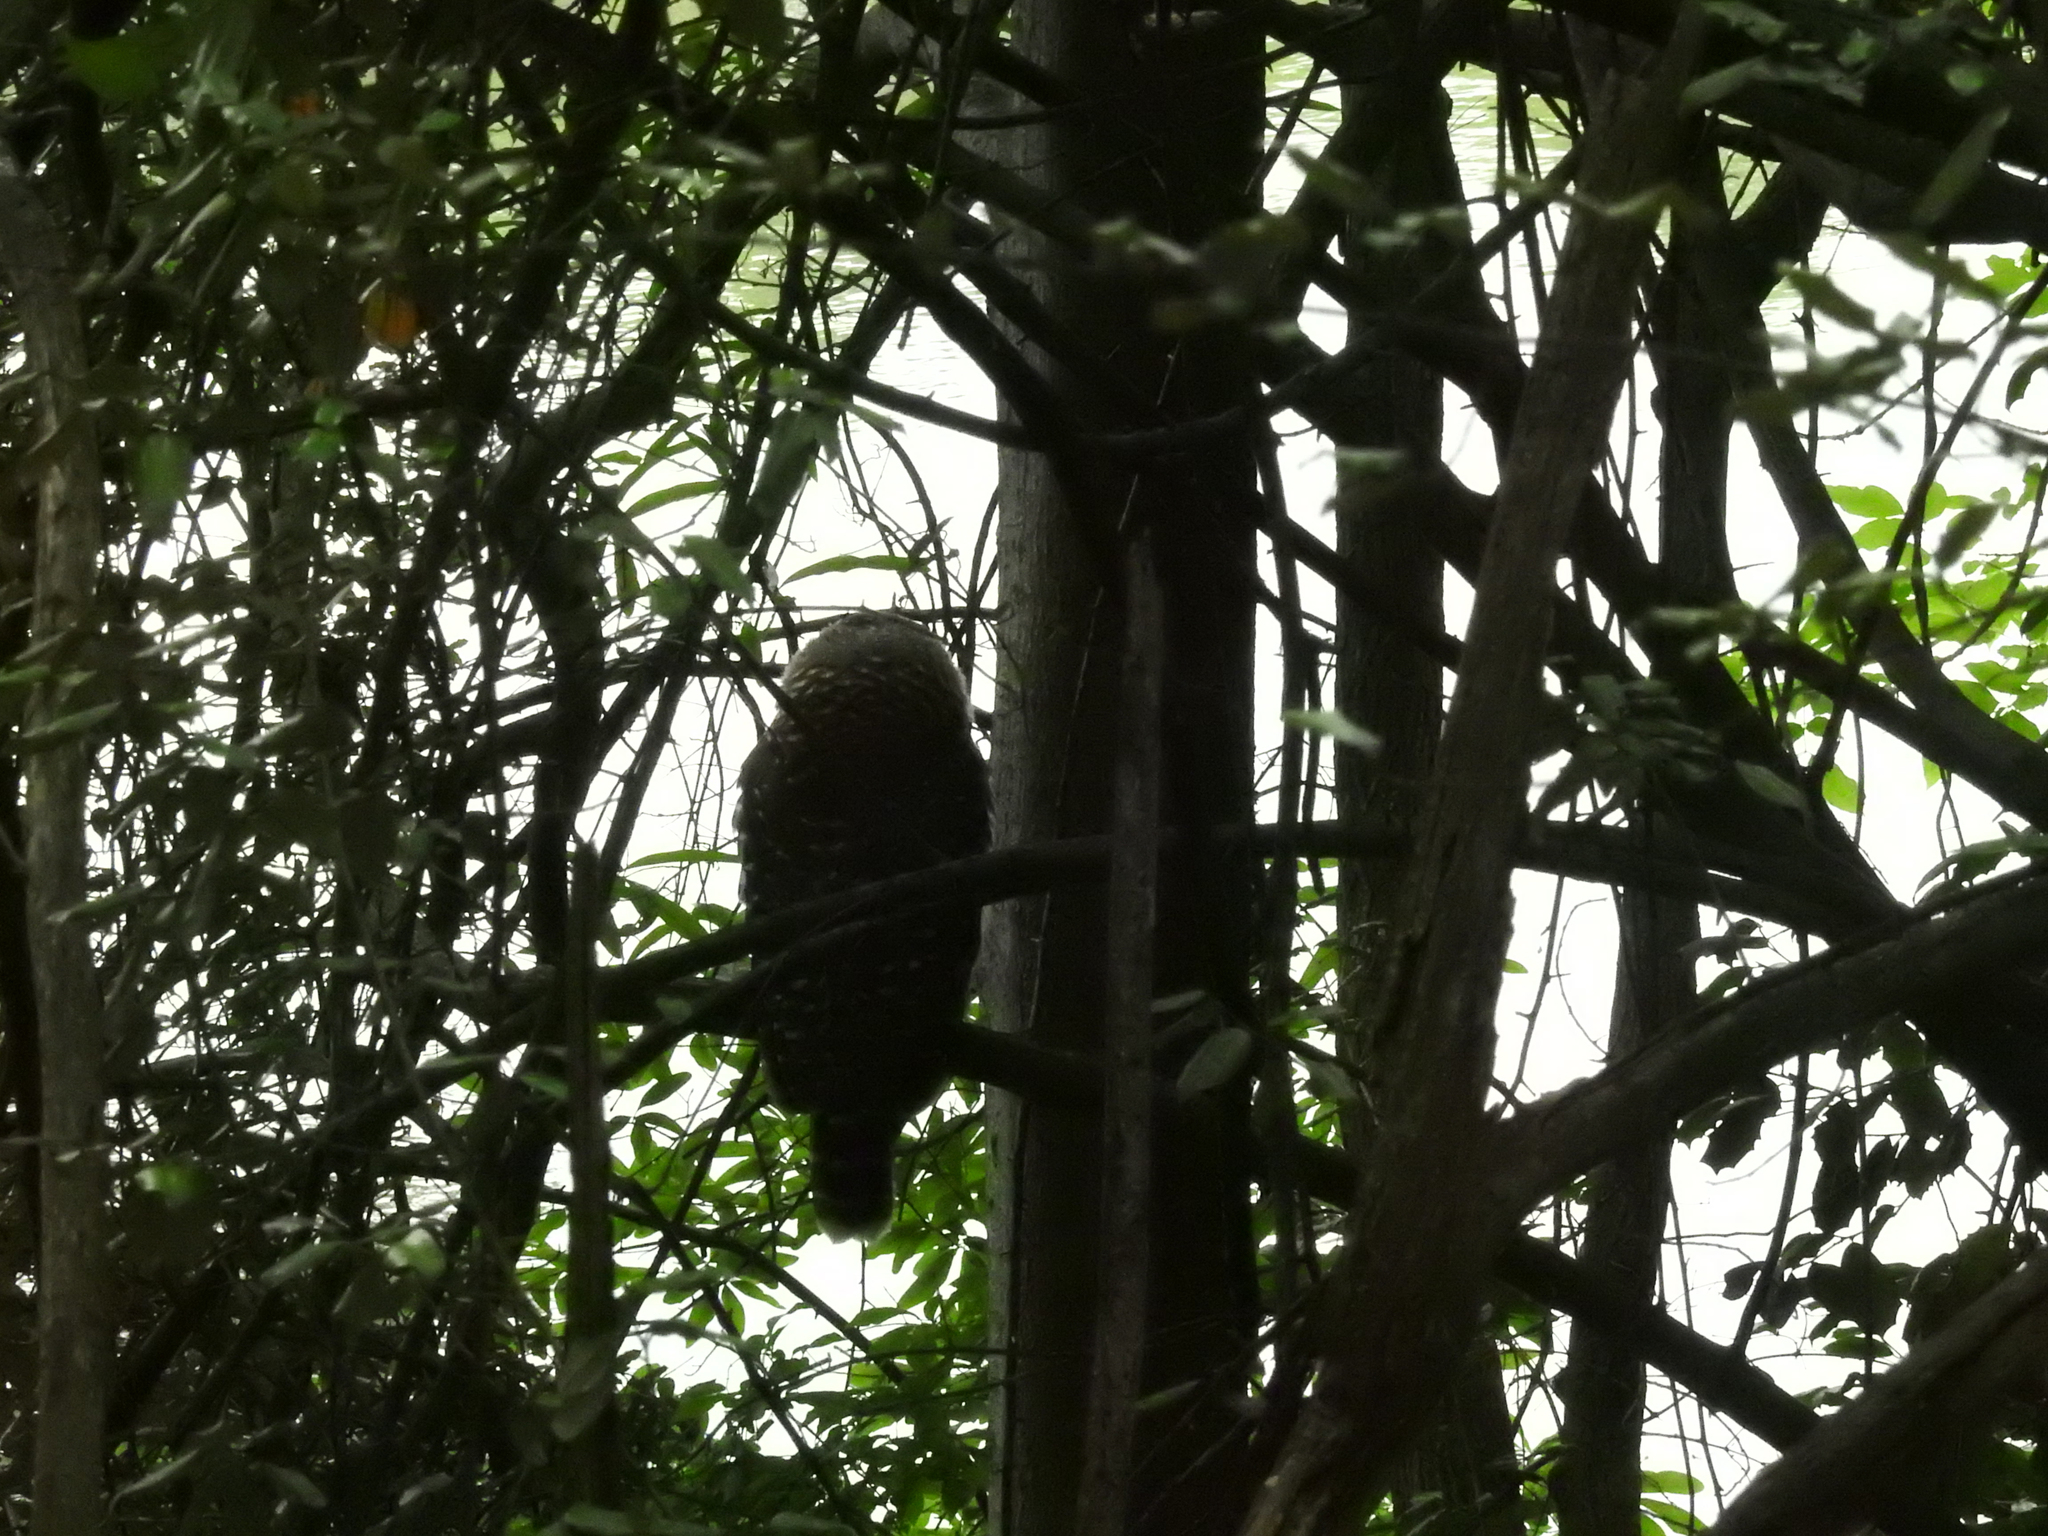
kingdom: Animalia
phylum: Chordata
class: Aves
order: Strigiformes
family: Strigidae
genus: Strix
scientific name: Strix varia
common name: Barred owl
